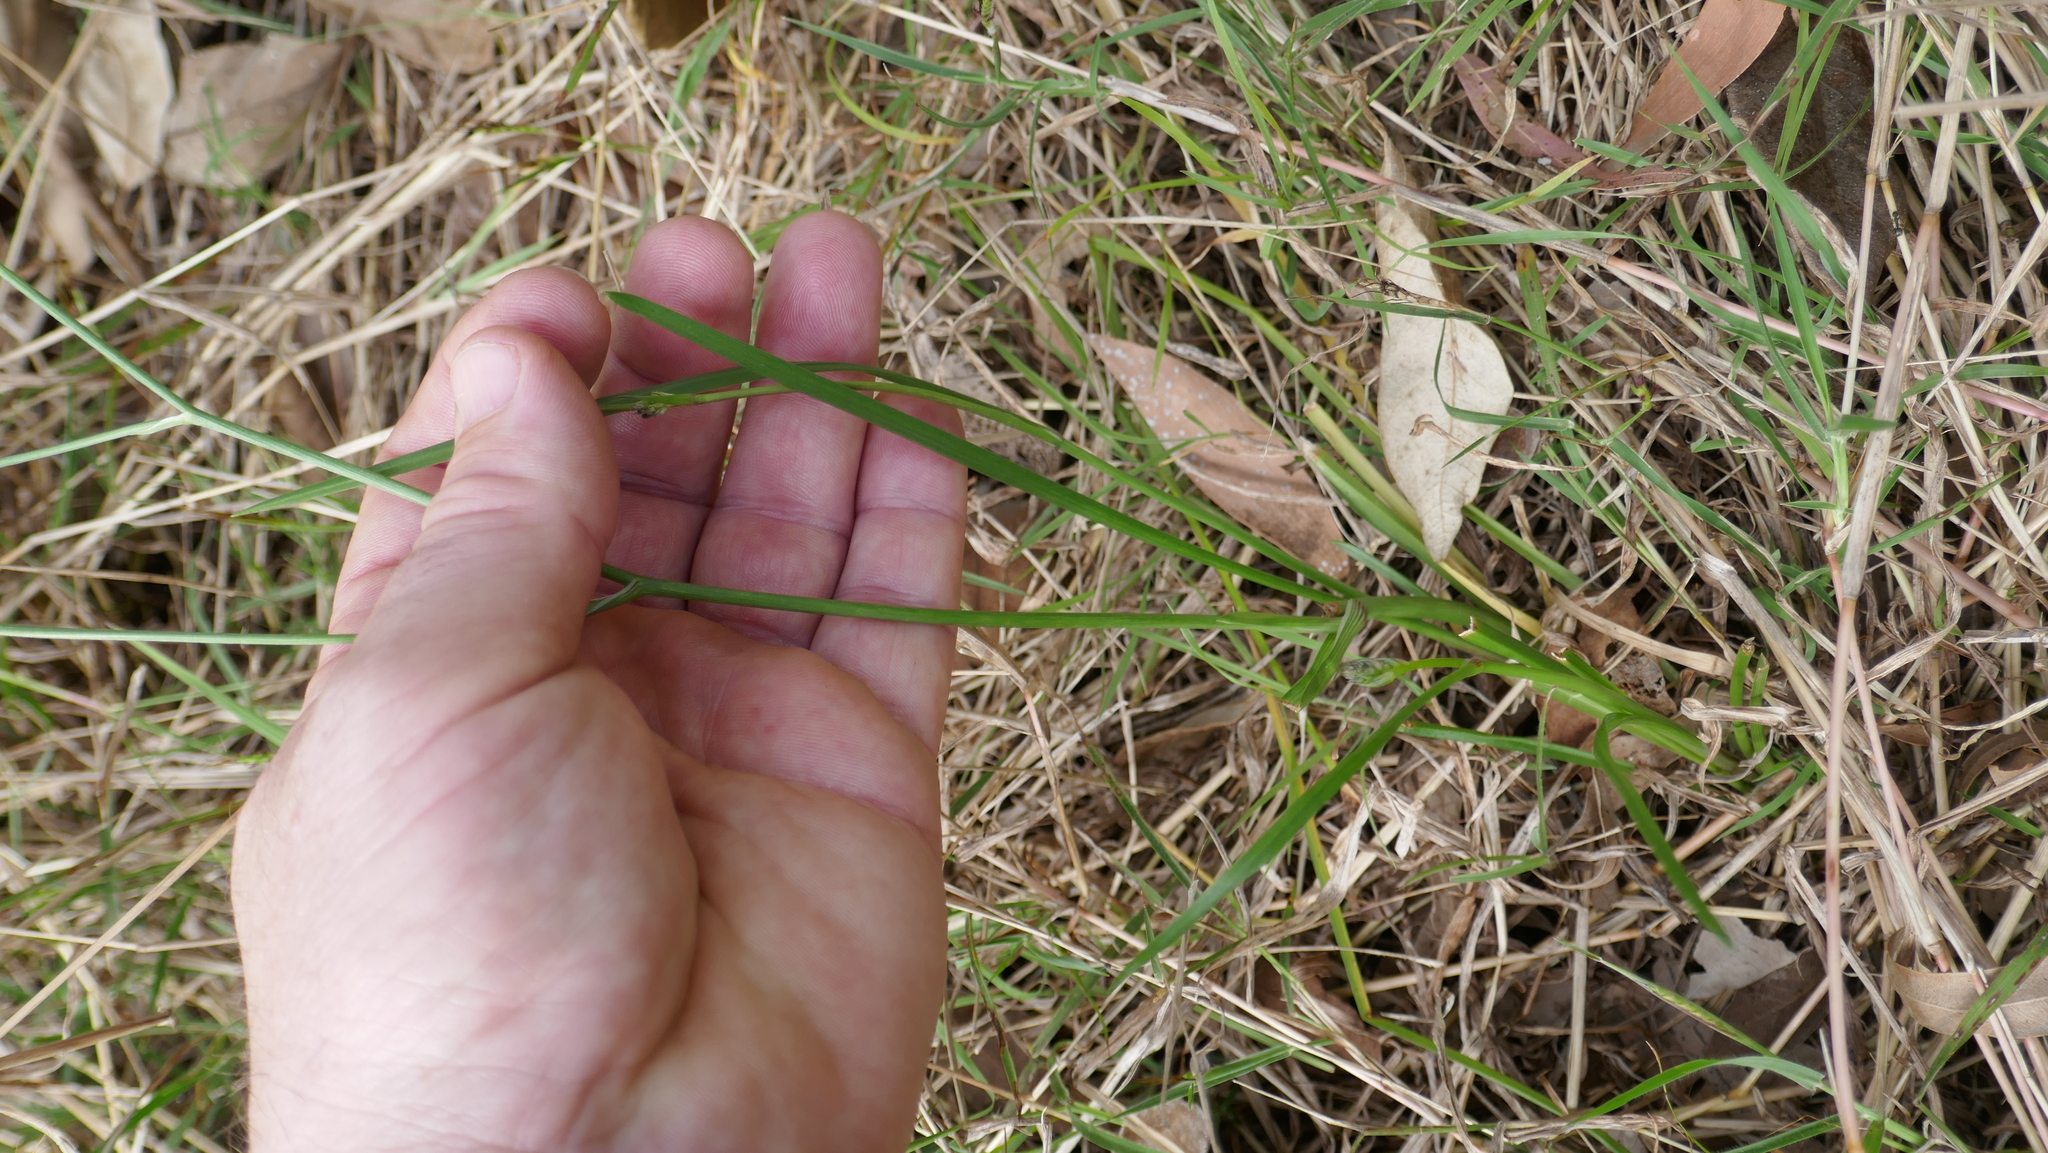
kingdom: Plantae
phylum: Tracheophyta
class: Liliopsida
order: Asparagales
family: Asphodelaceae
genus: Caesia
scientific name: Caesia chlorantha
